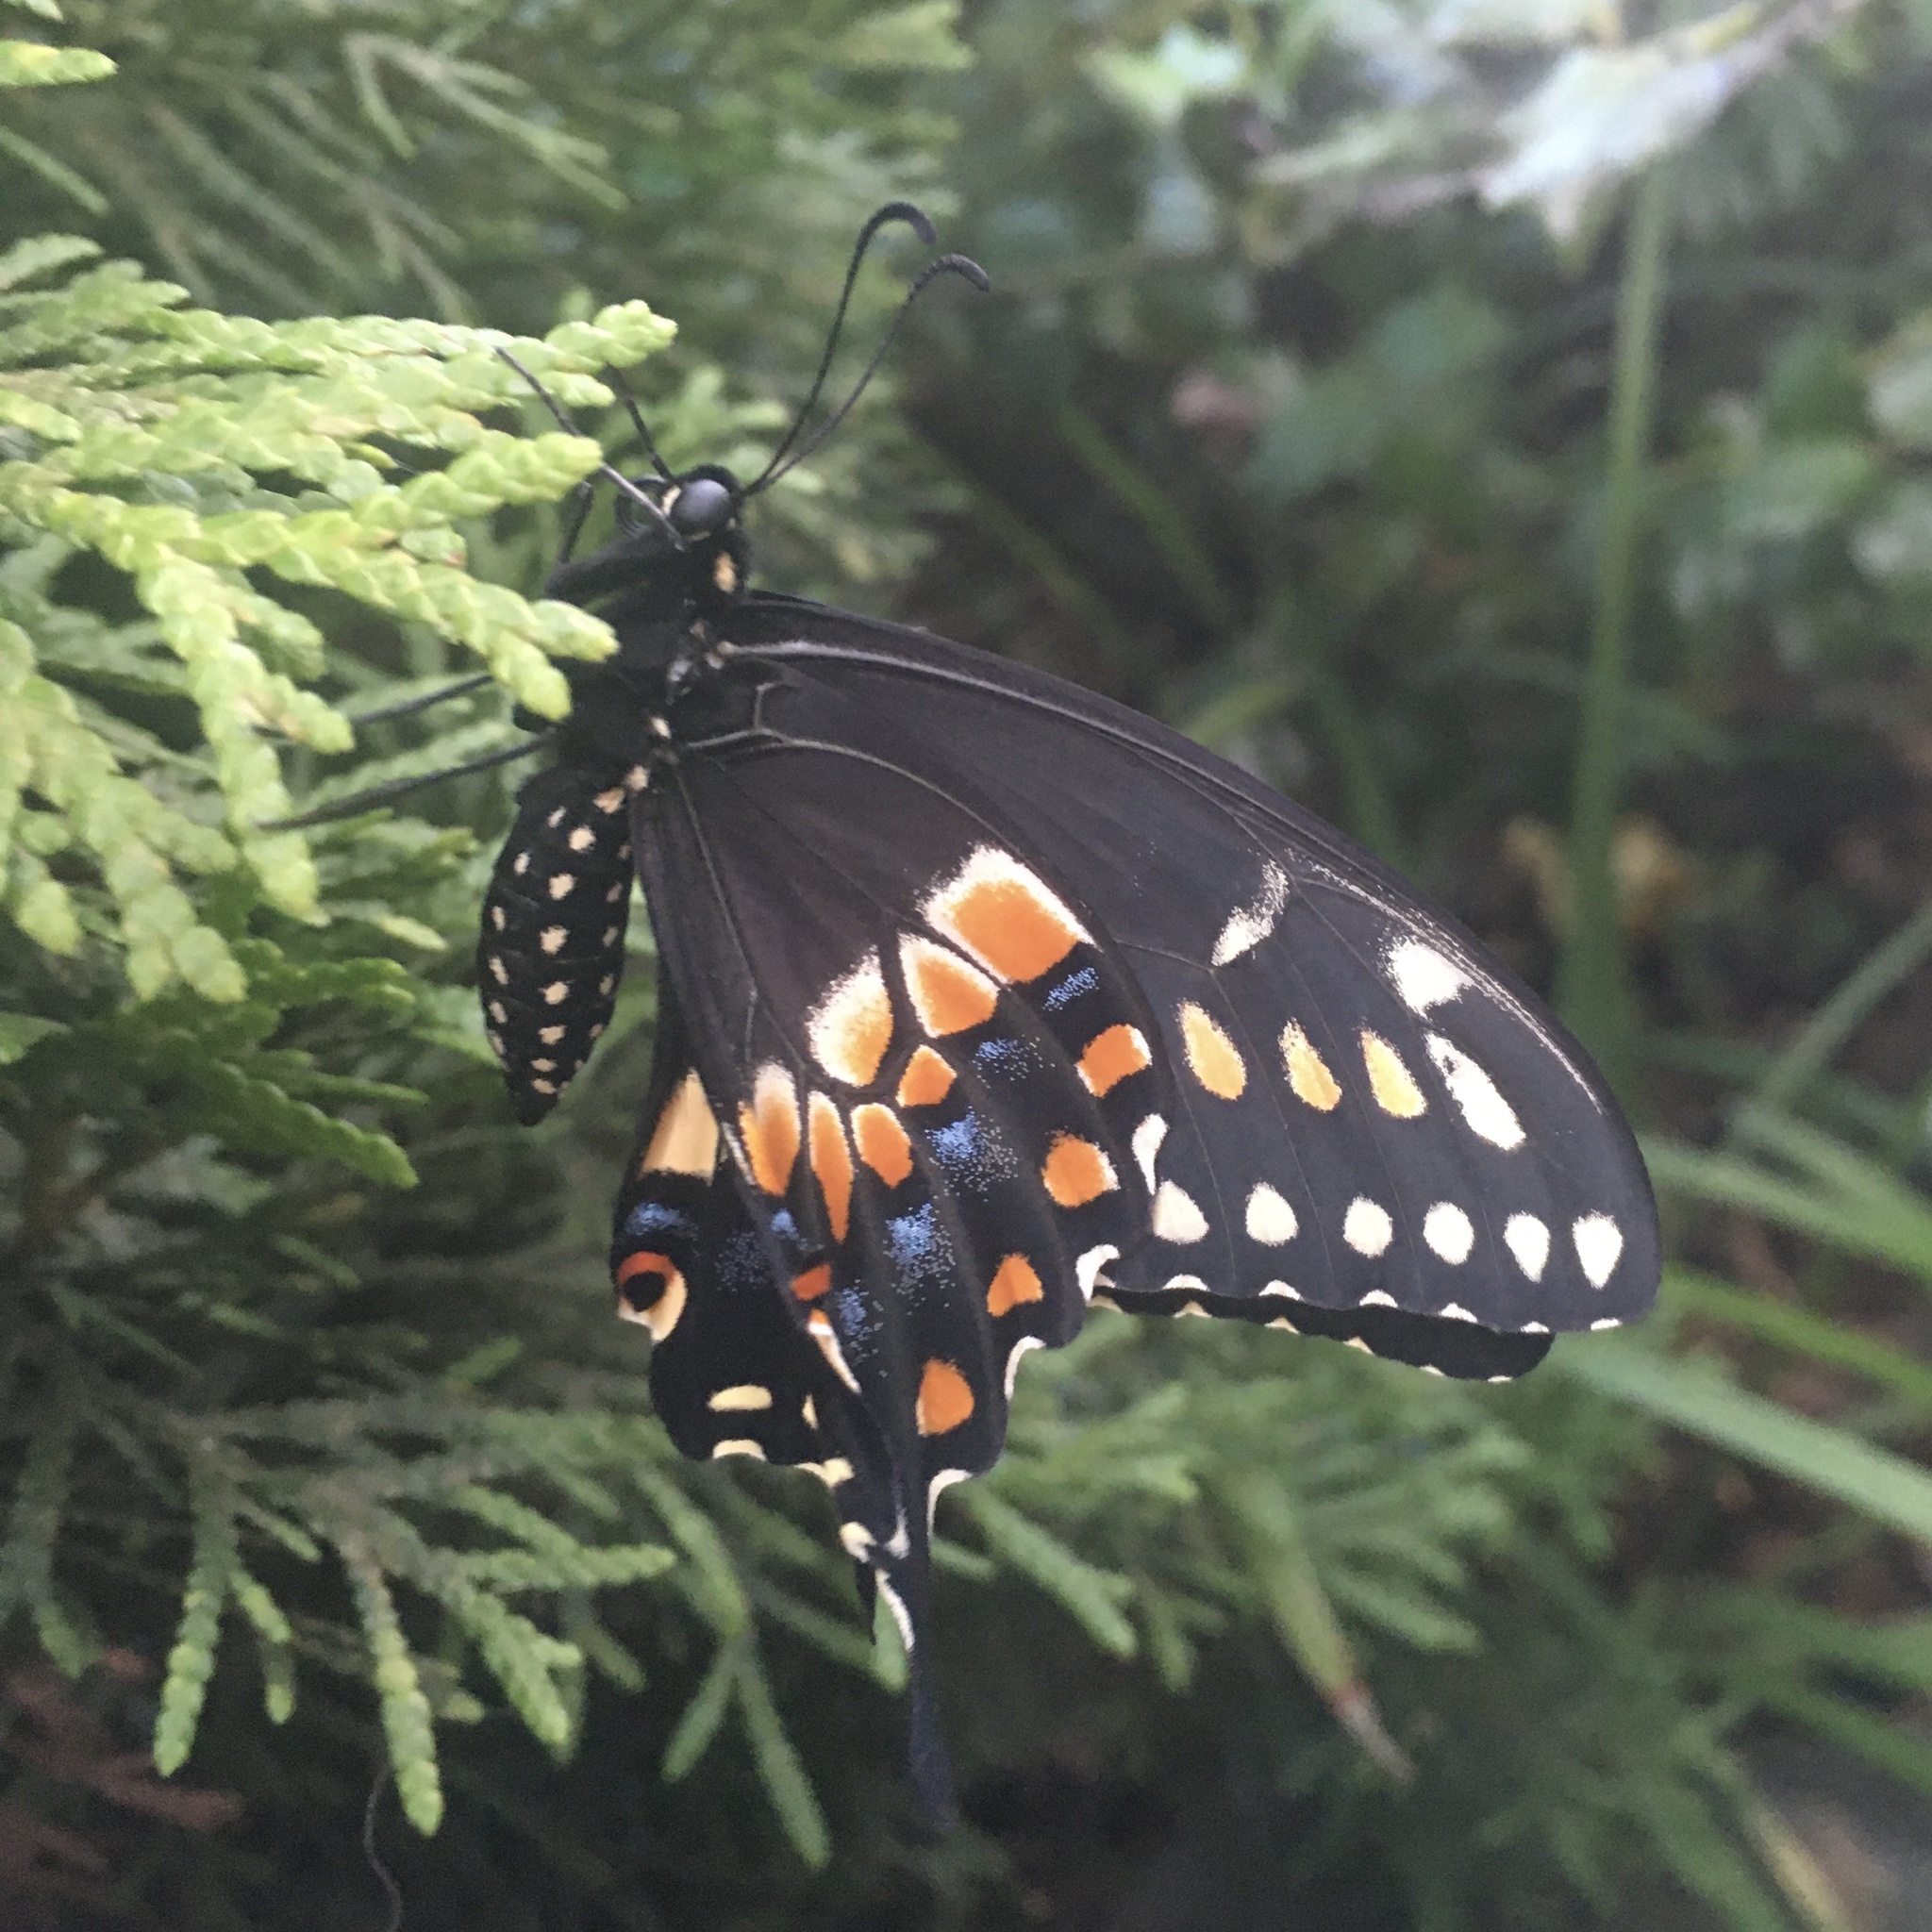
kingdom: Animalia
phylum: Arthropoda
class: Insecta
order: Lepidoptera
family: Papilionidae
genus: Papilio
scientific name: Papilio polyxenes
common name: Black swallowtail
